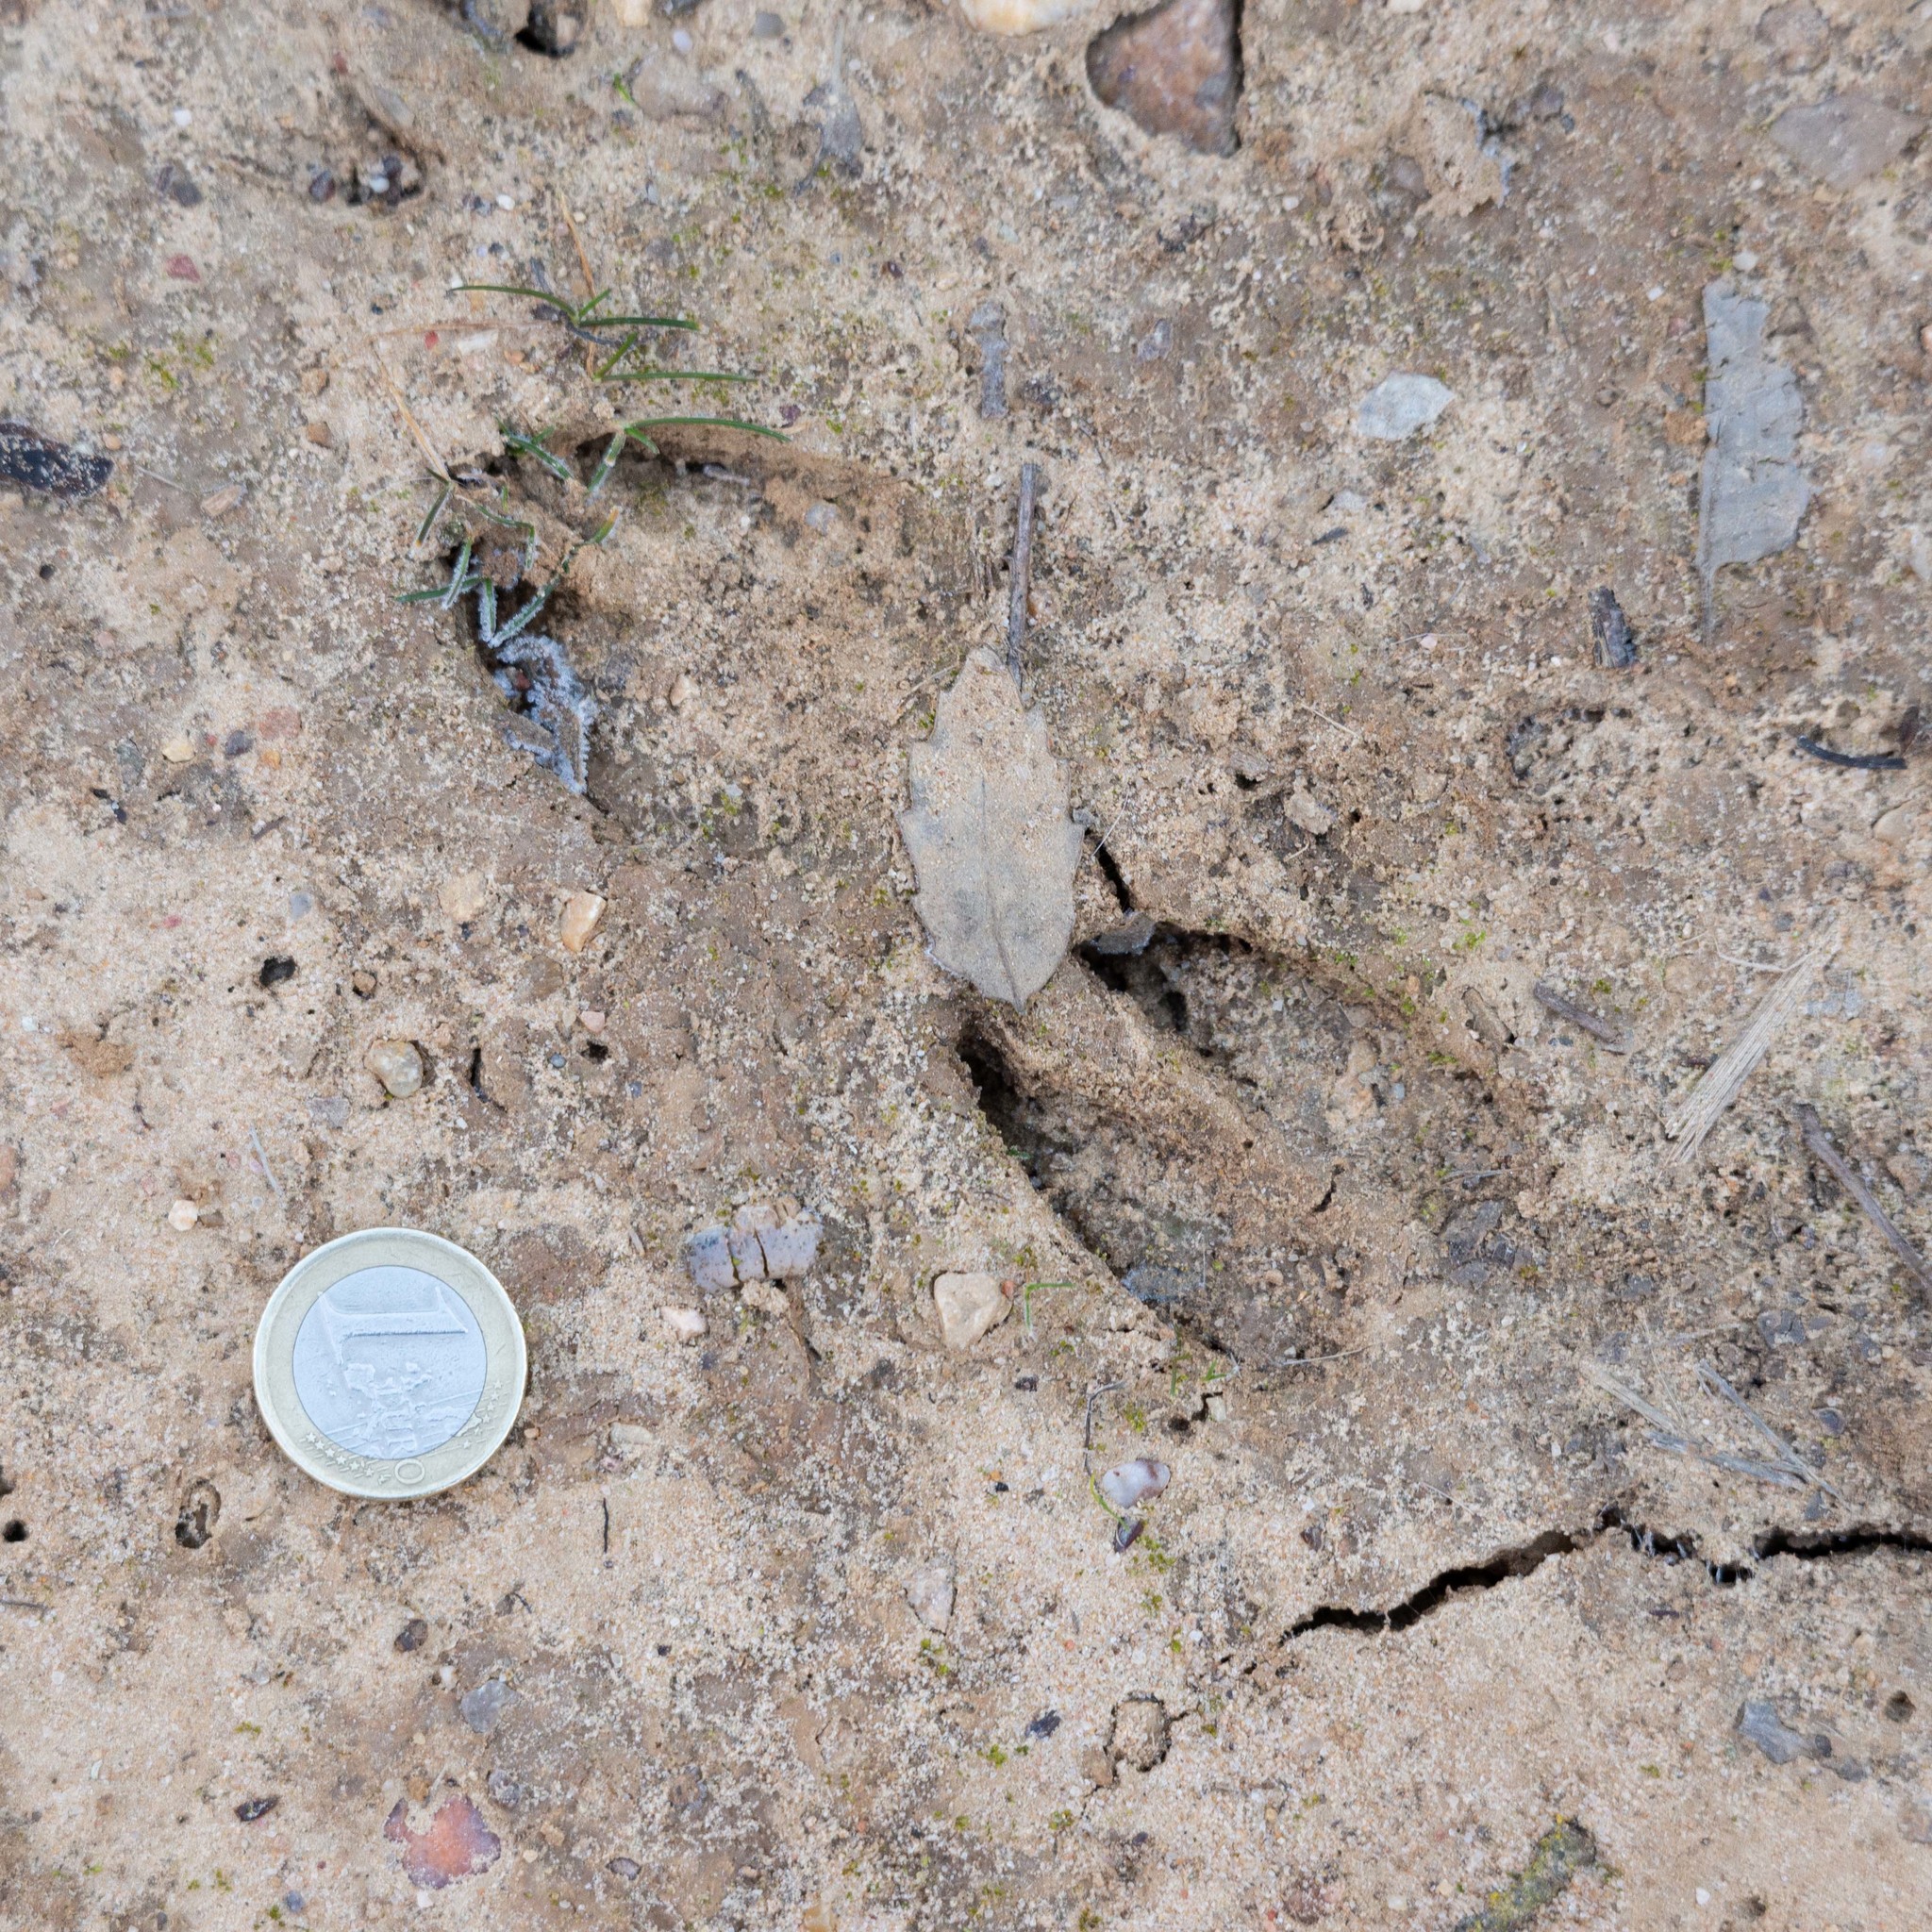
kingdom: Animalia
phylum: Chordata
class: Mammalia
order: Artiodactyla
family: Cervidae
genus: Capreolus
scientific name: Capreolus capreolus
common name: Western roe deer
